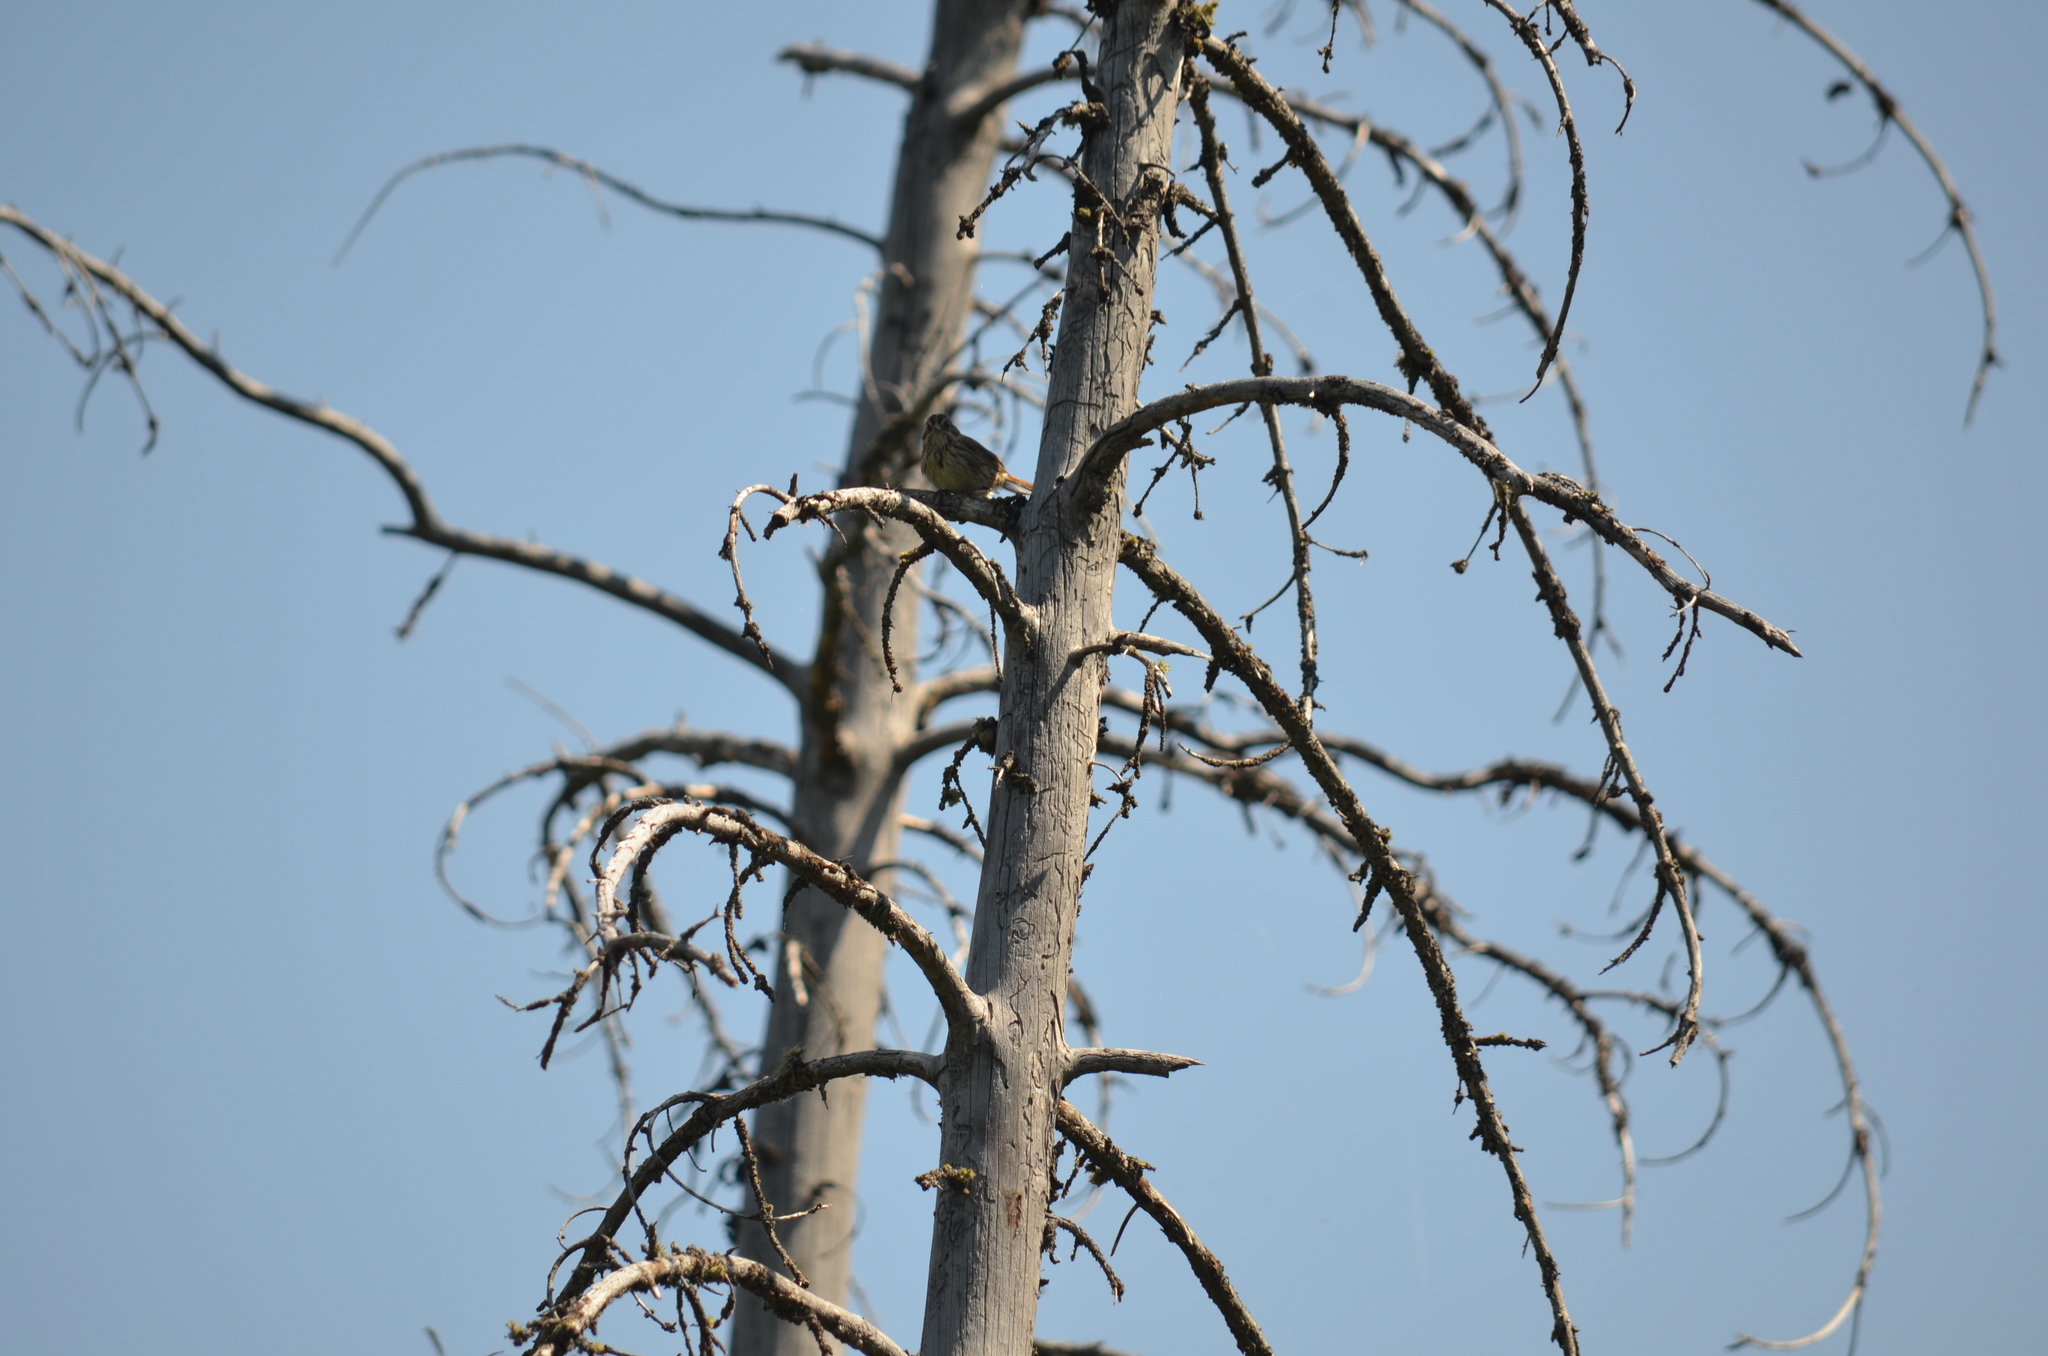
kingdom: Animalia
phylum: Chordata
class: Aves
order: Passeriformes
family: Passerellidae
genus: Melospiza
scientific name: Melospiza melodia
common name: Song sparrow
